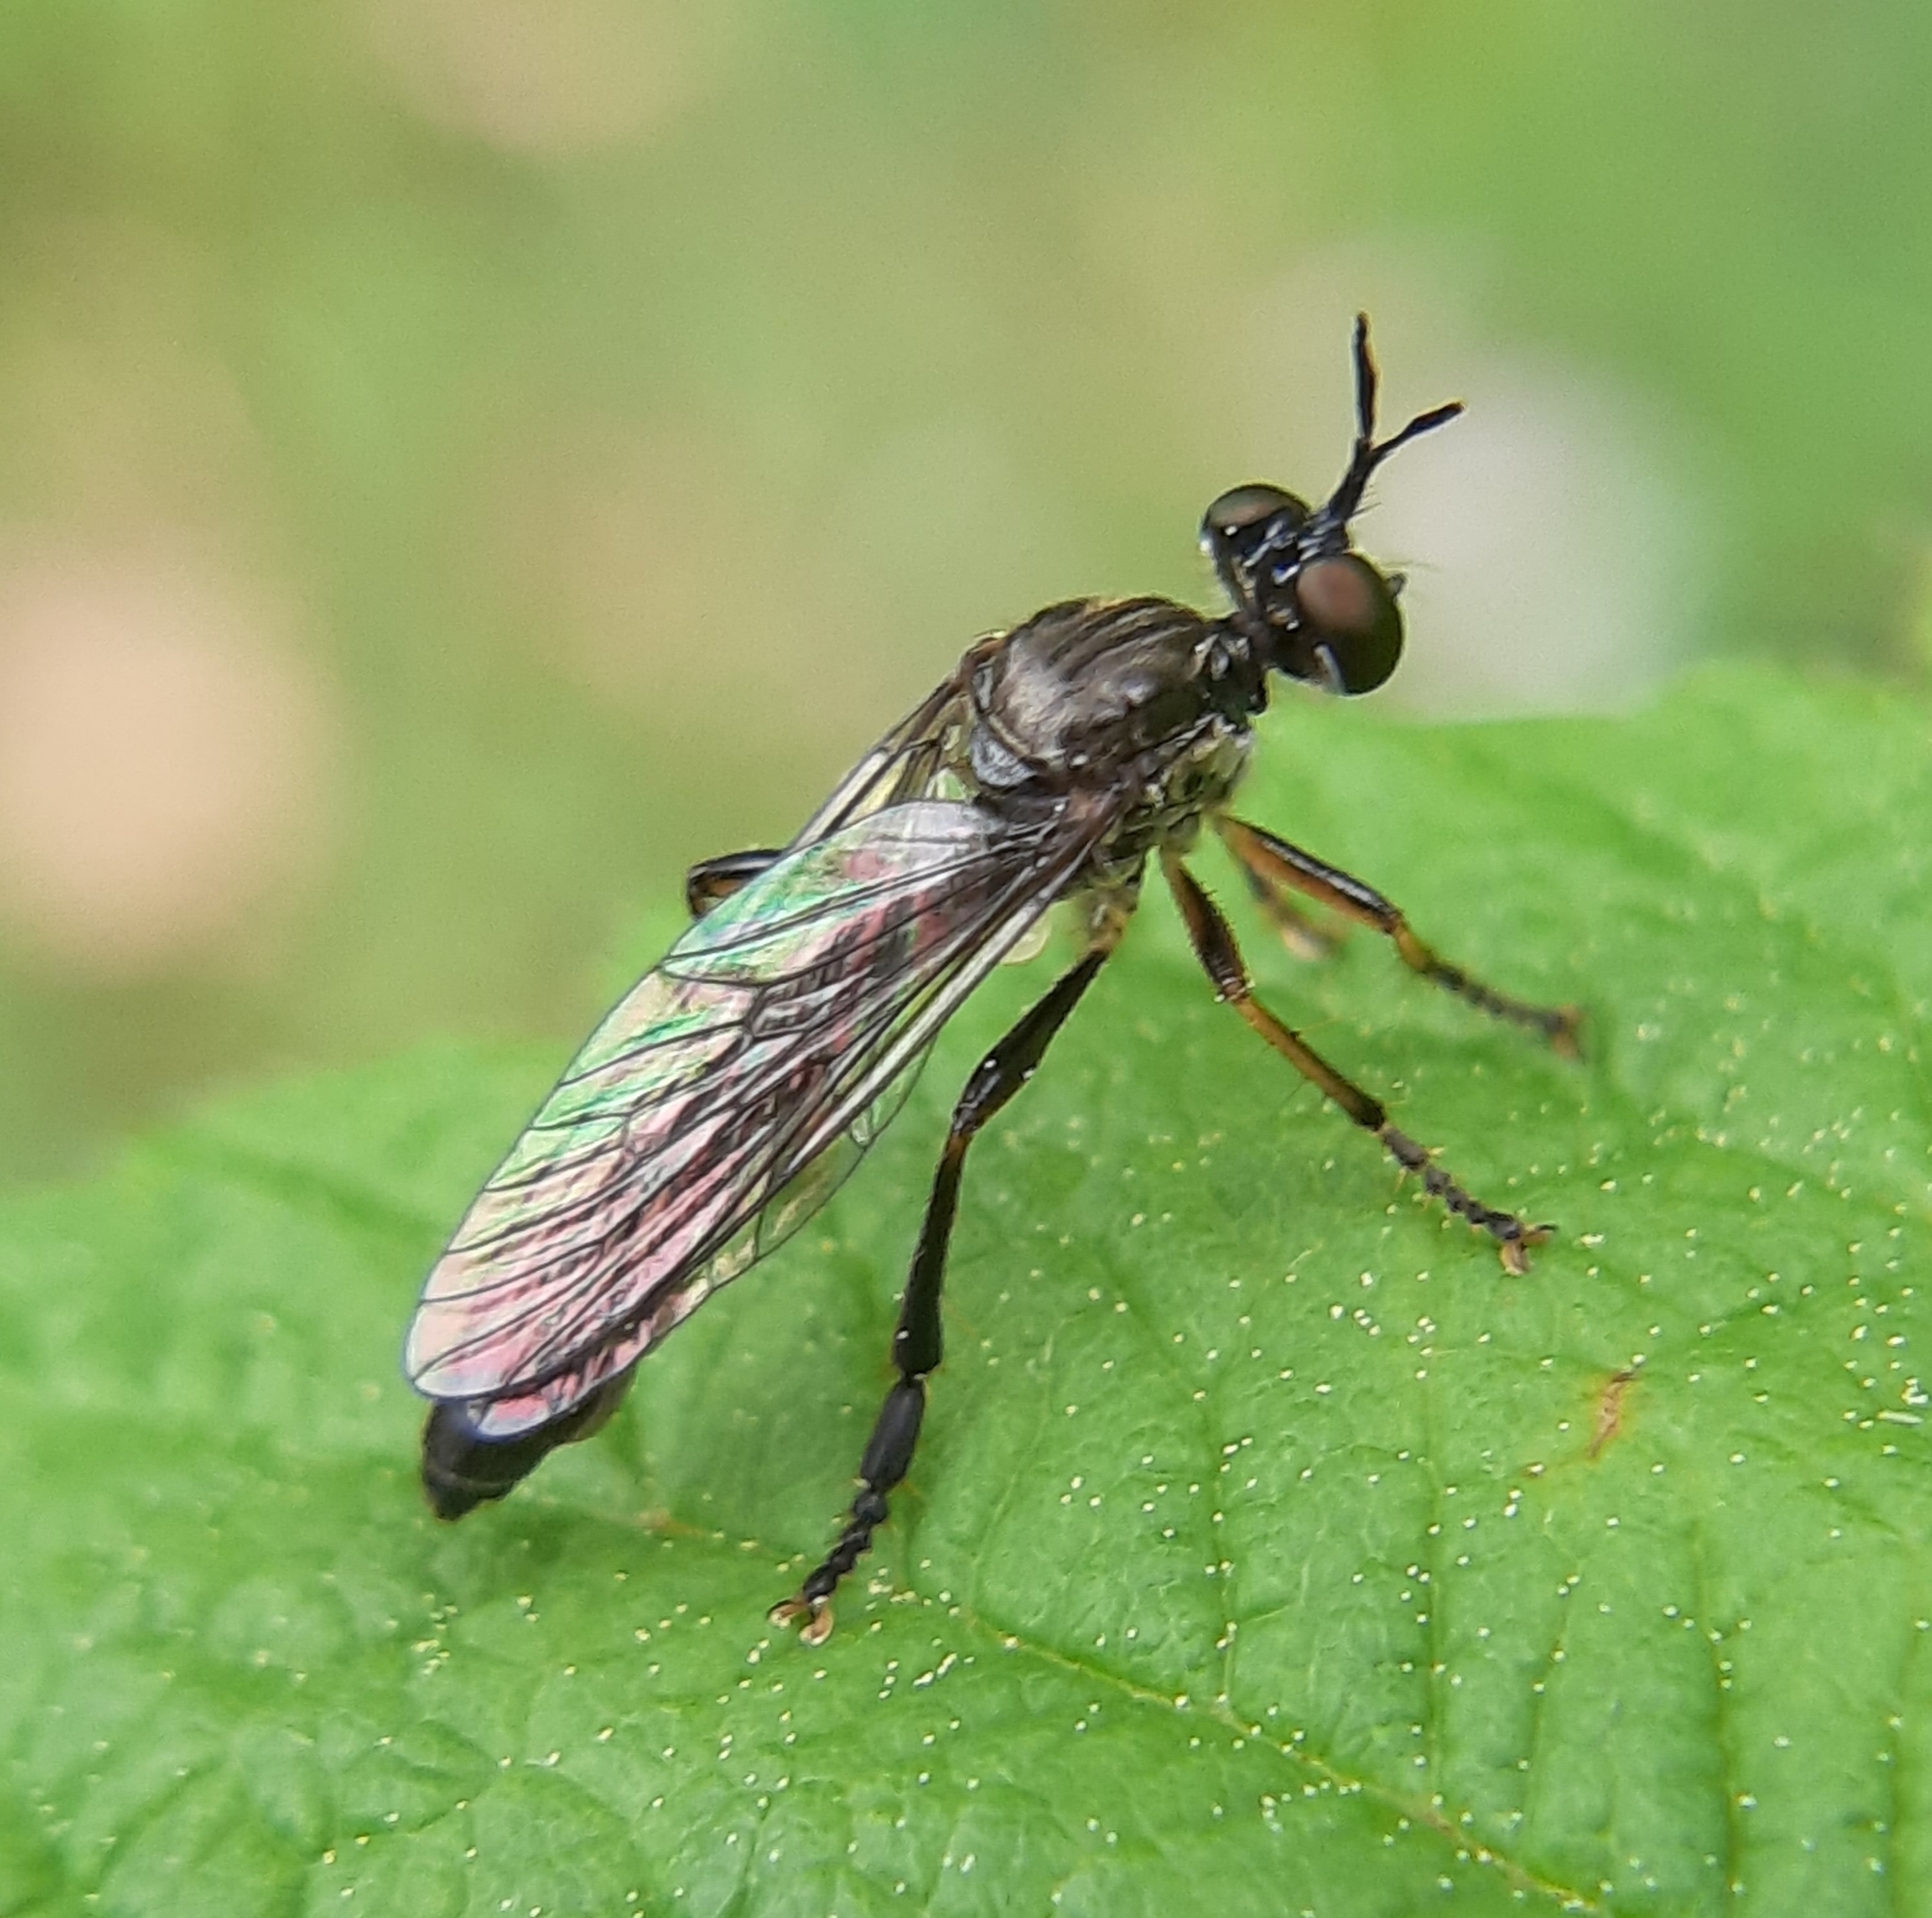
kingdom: Animalia
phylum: Arthropoda
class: Insecta
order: Diptera
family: Asilidae
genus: Dioctria
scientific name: Dioctria hyalipennis
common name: Stripe-legged robberfly
